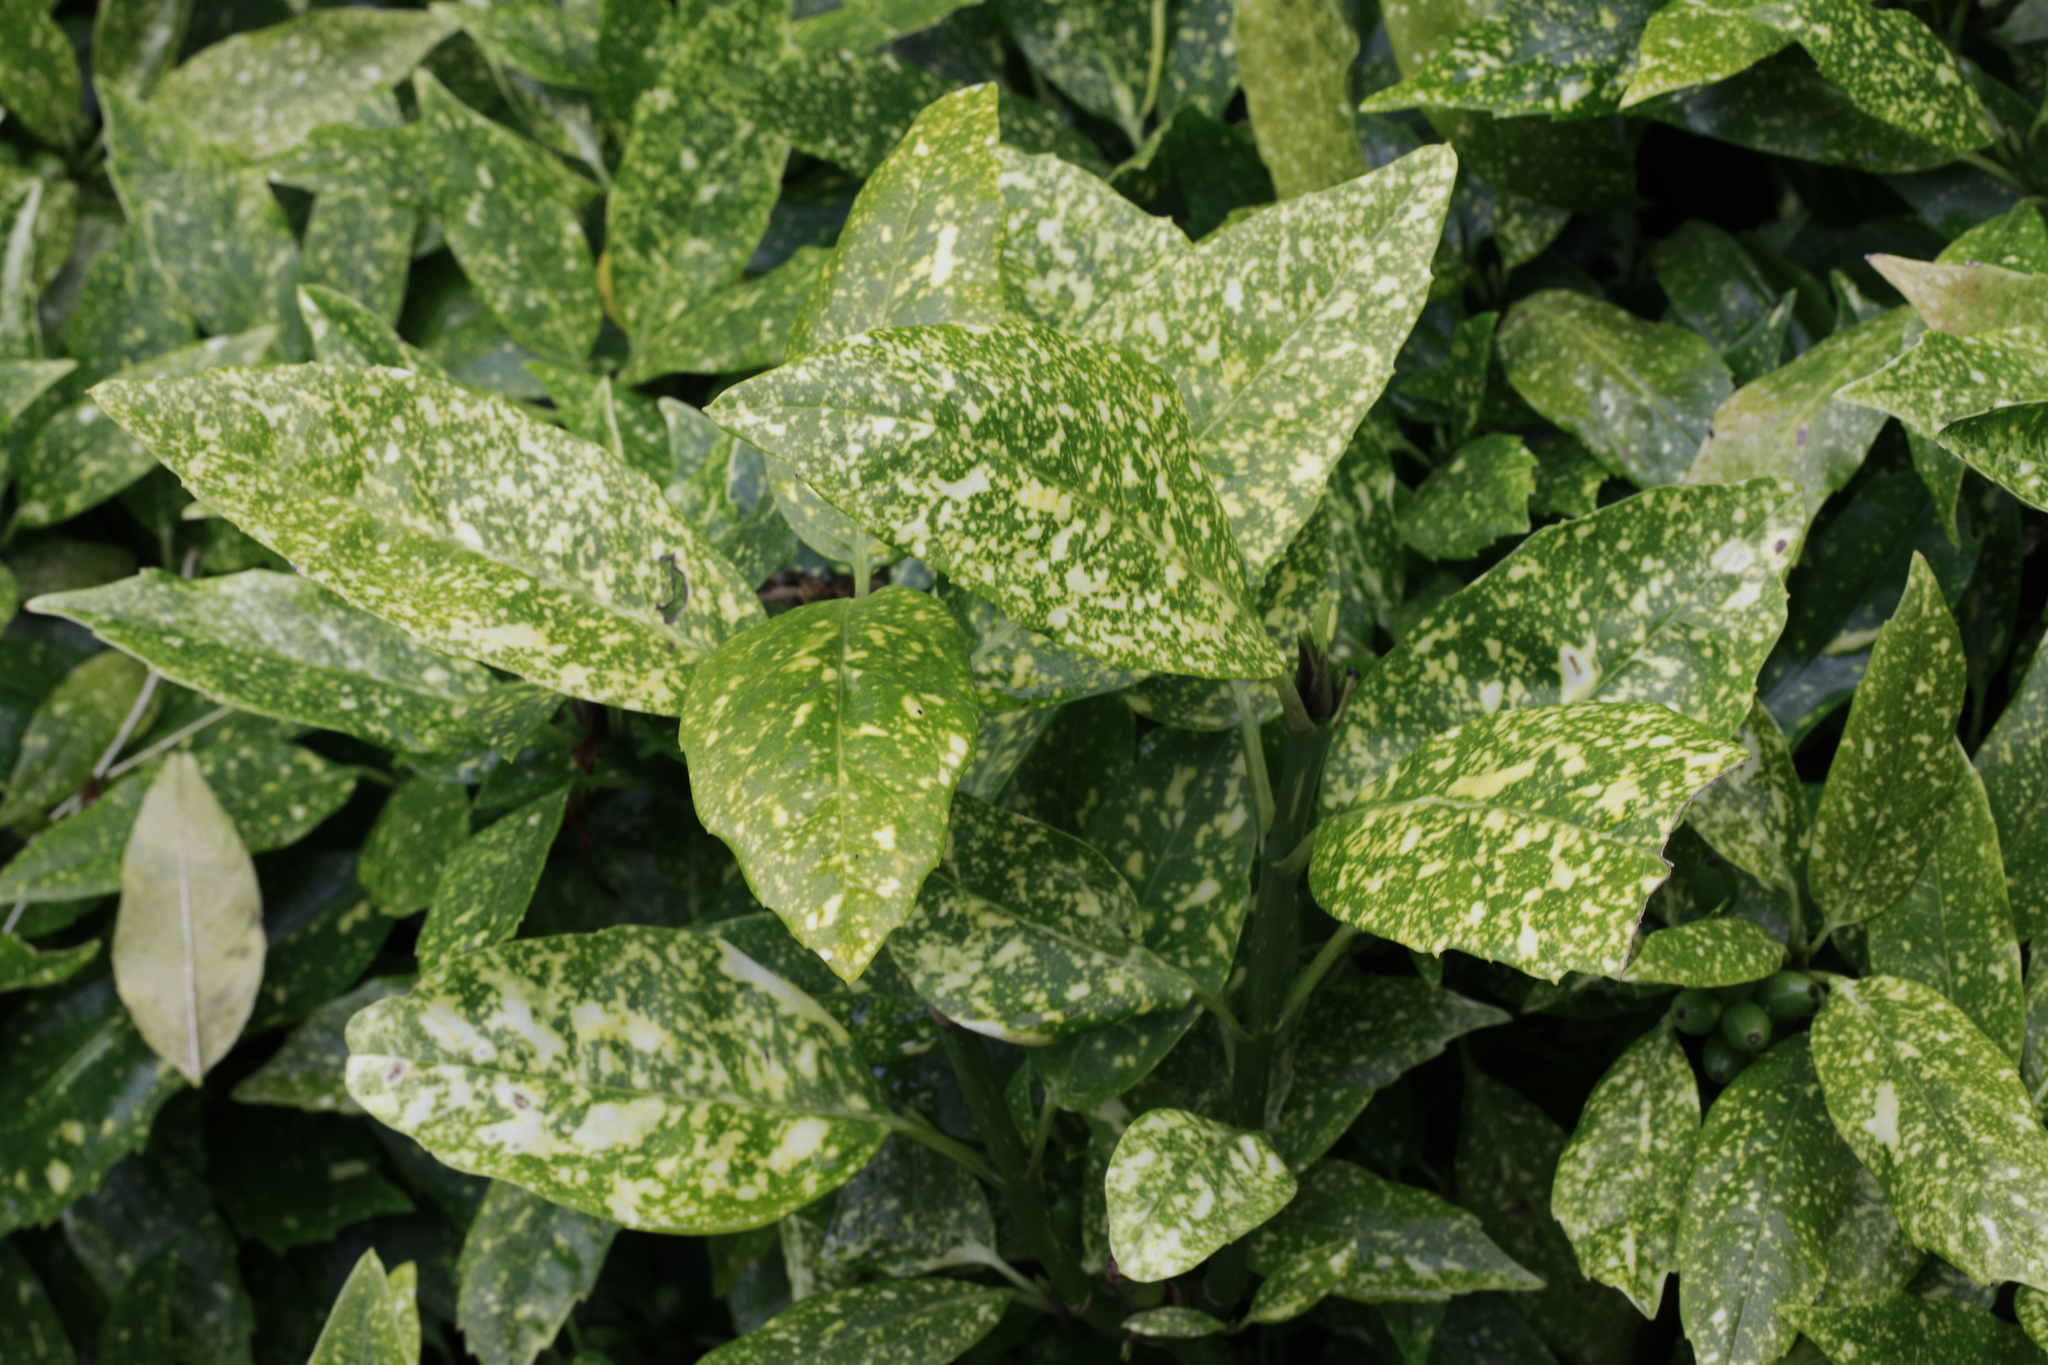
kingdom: Plantae
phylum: Tracheophyta
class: Magnoliopsida
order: Garryales
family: Garryaceae
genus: Aucuba
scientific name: Aucuba japonica
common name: Spotted-laurel
